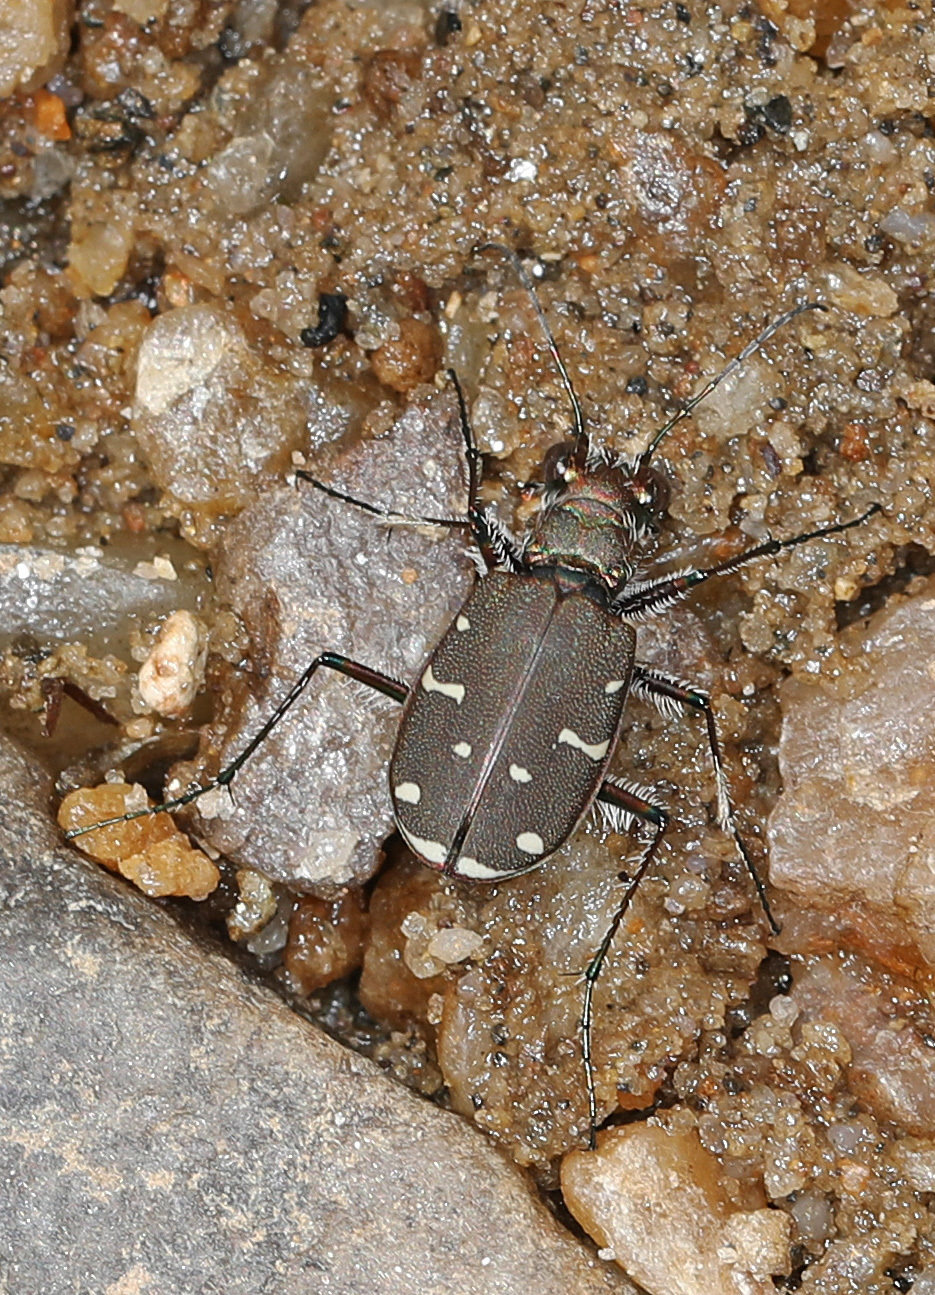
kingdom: Animalia
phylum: Arthropoda
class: Insecta
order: Coleoptera
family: Carabidae
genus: Cicindela
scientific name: Cicindela duodecimguttata
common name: Twelve-spotted tiger beetle
